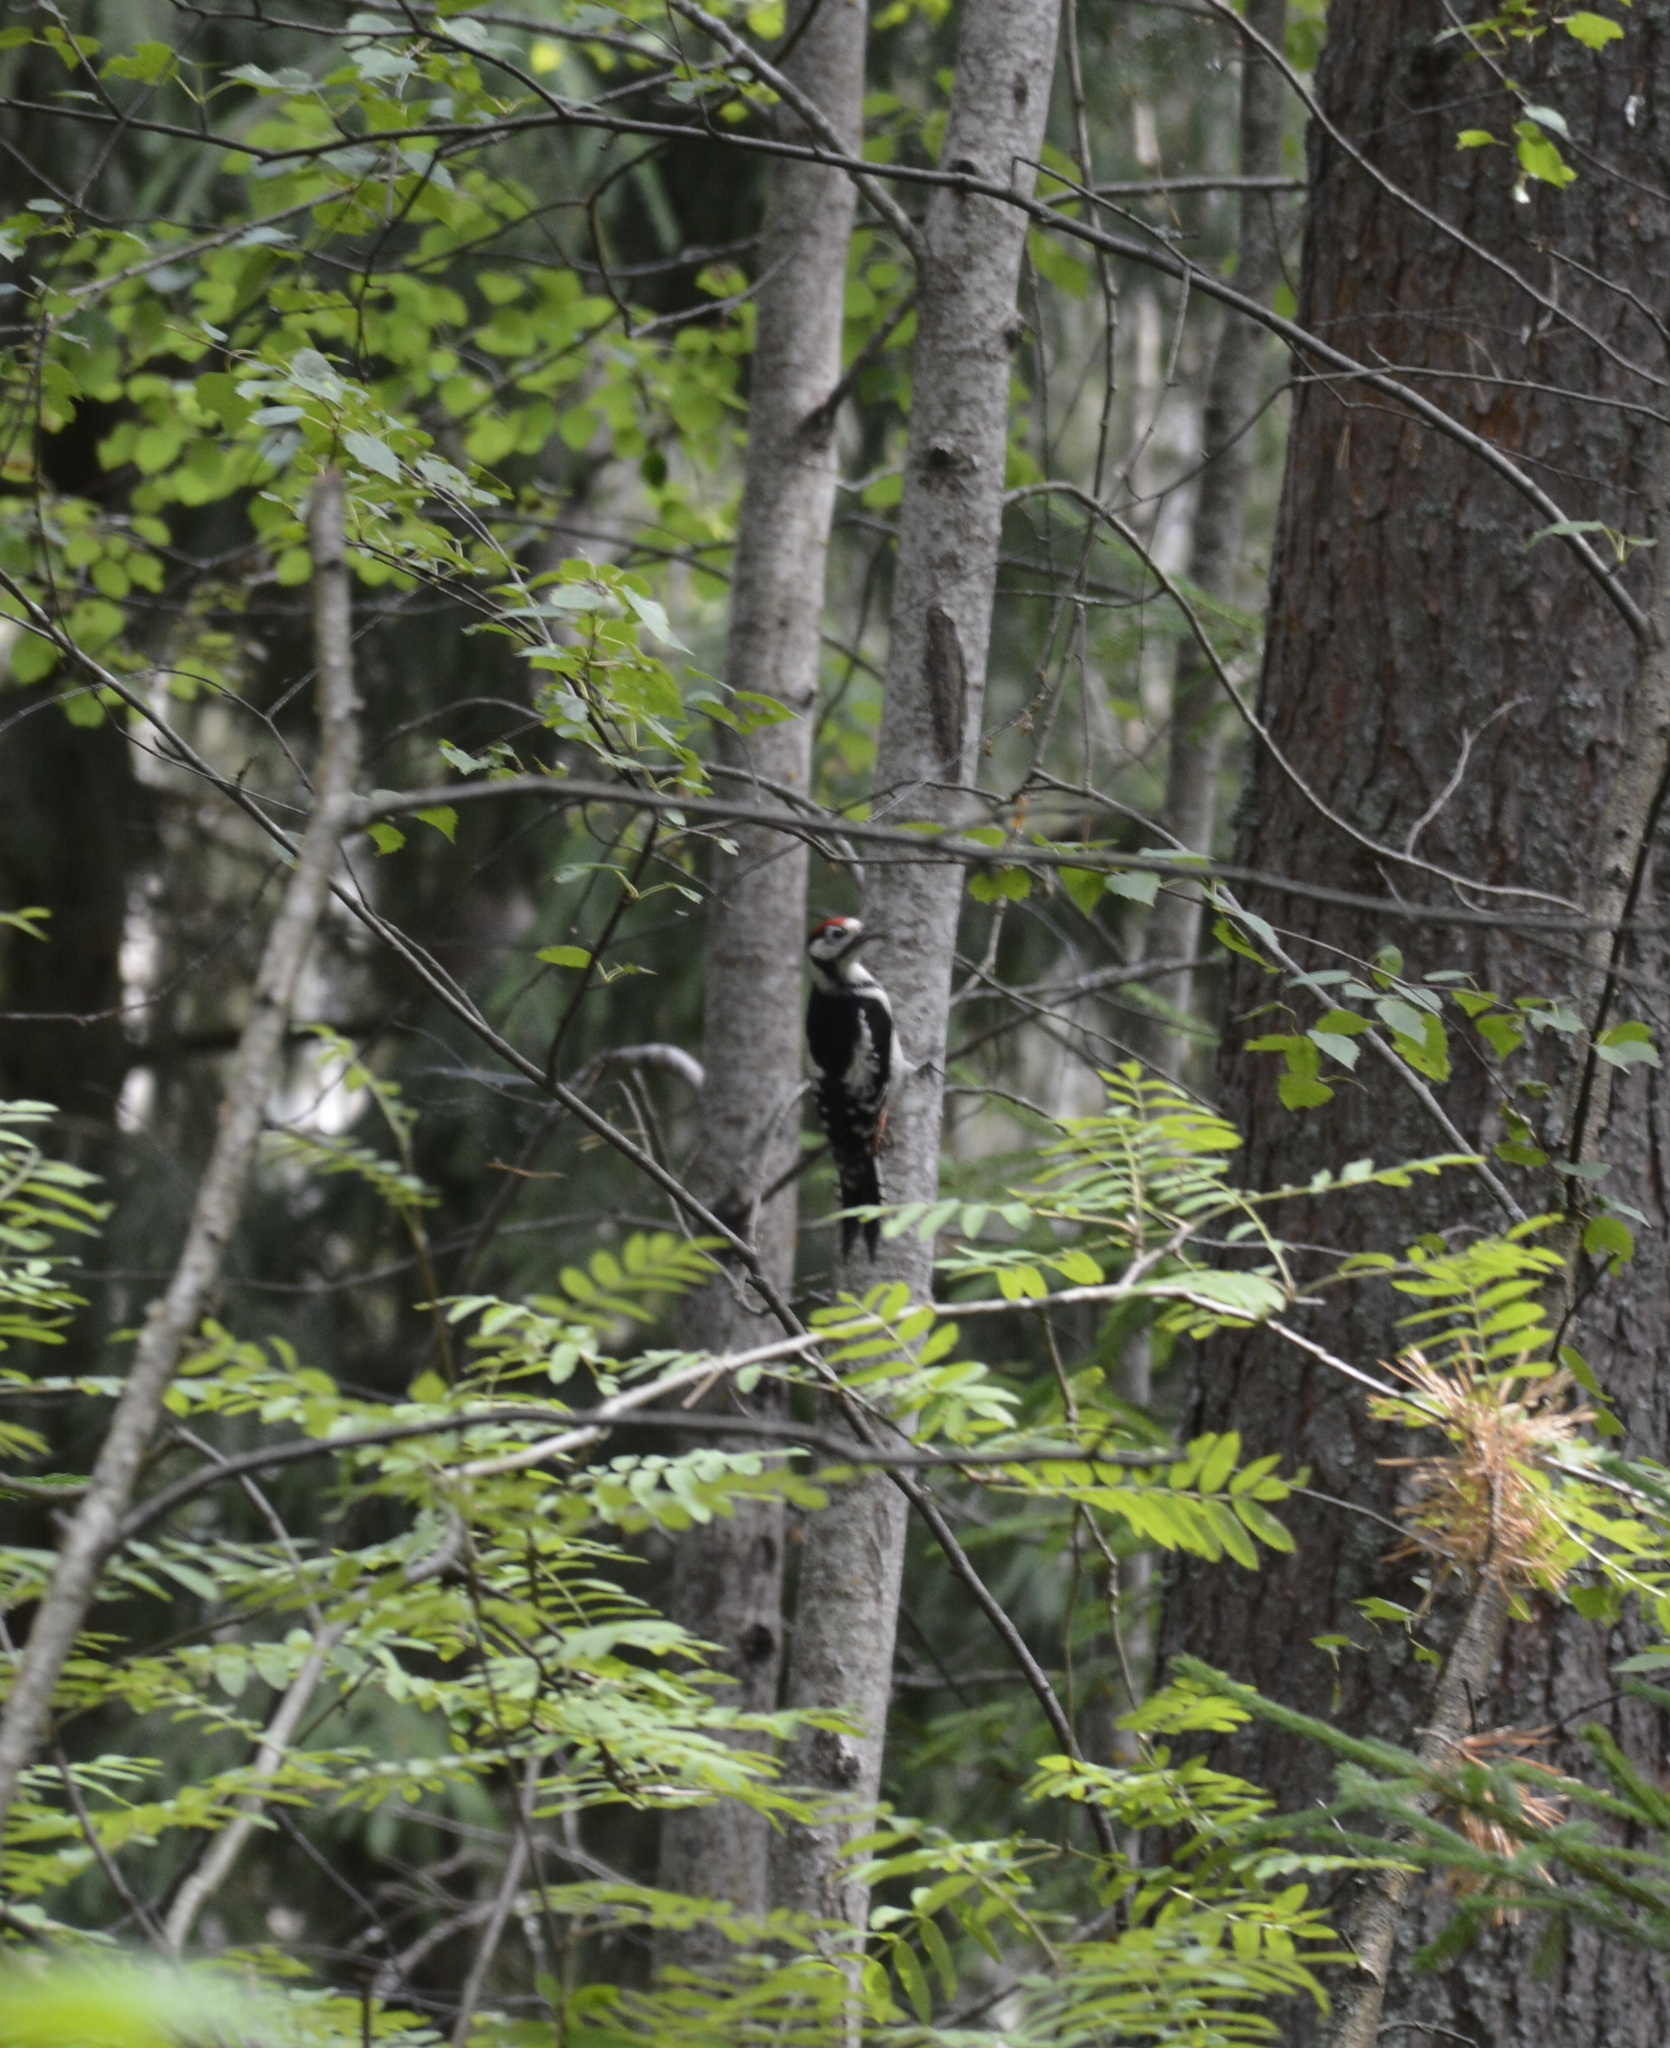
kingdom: Animalia
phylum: Chordata
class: Aves
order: Piciformes
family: Picidae
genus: Dendrocopos
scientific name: Dendrocopos major
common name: Great spotted woodpecker
